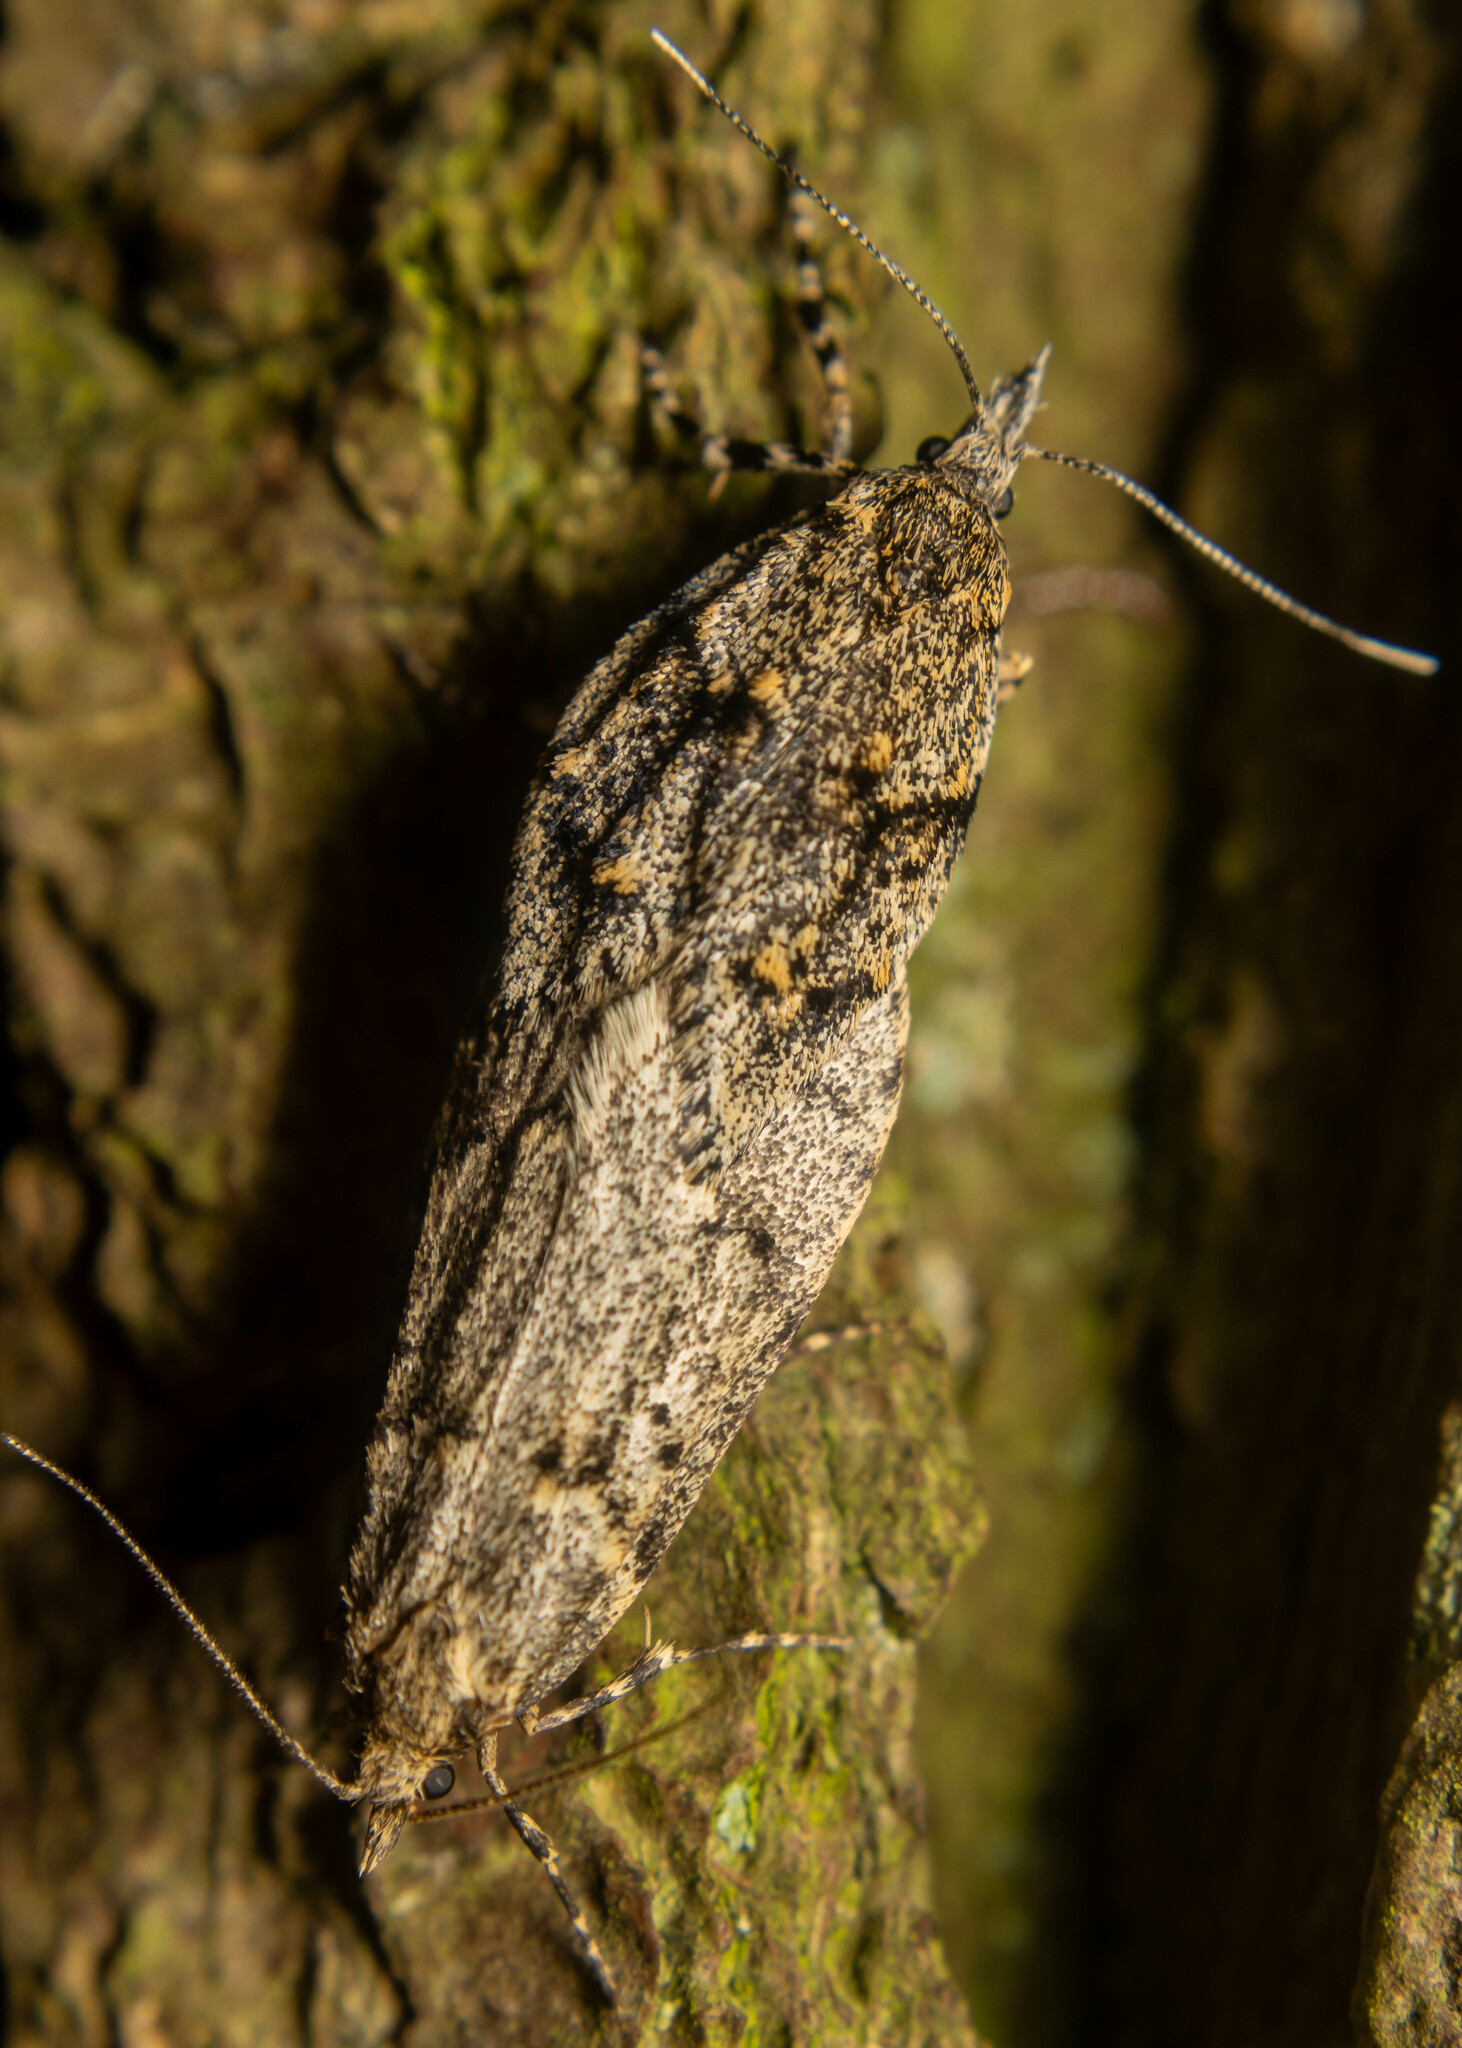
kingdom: Animalia
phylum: Arthropoda
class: Insecta
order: Lepidoptera
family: Lypusidae
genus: Diurnea
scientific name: Diurnea fagella
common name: March tubic
